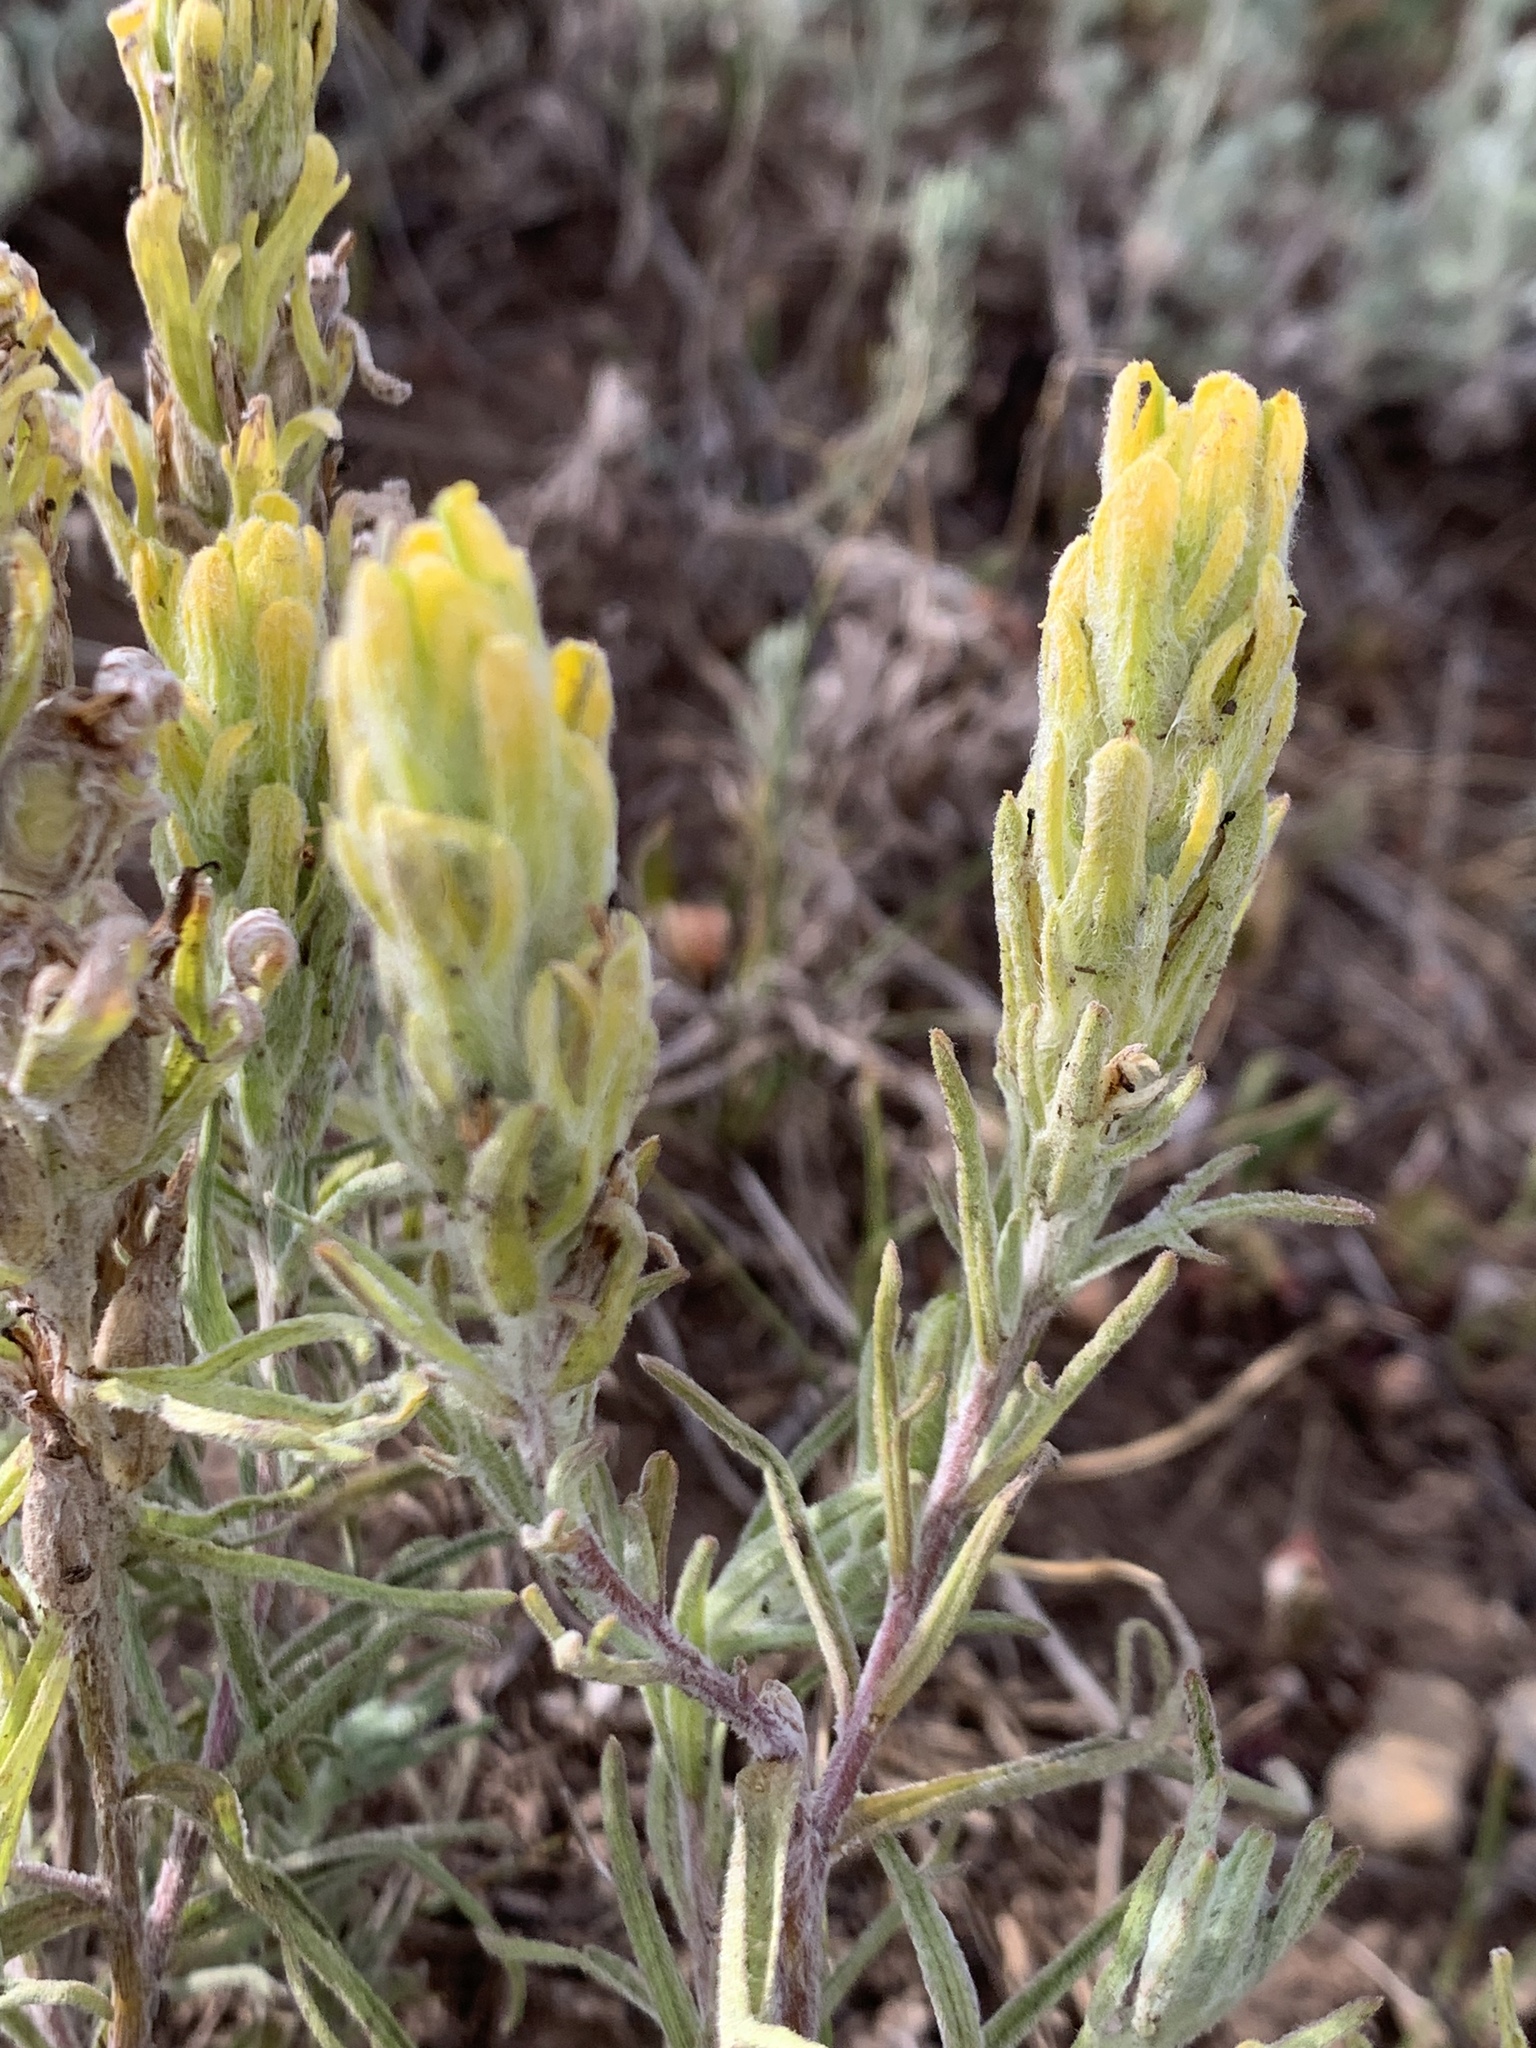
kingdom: Plantae
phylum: Tracheophyta
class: Magnoliopsida
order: Lamiales
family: Orobanchaceae
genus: Castilleja
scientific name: Castilleja lineata
